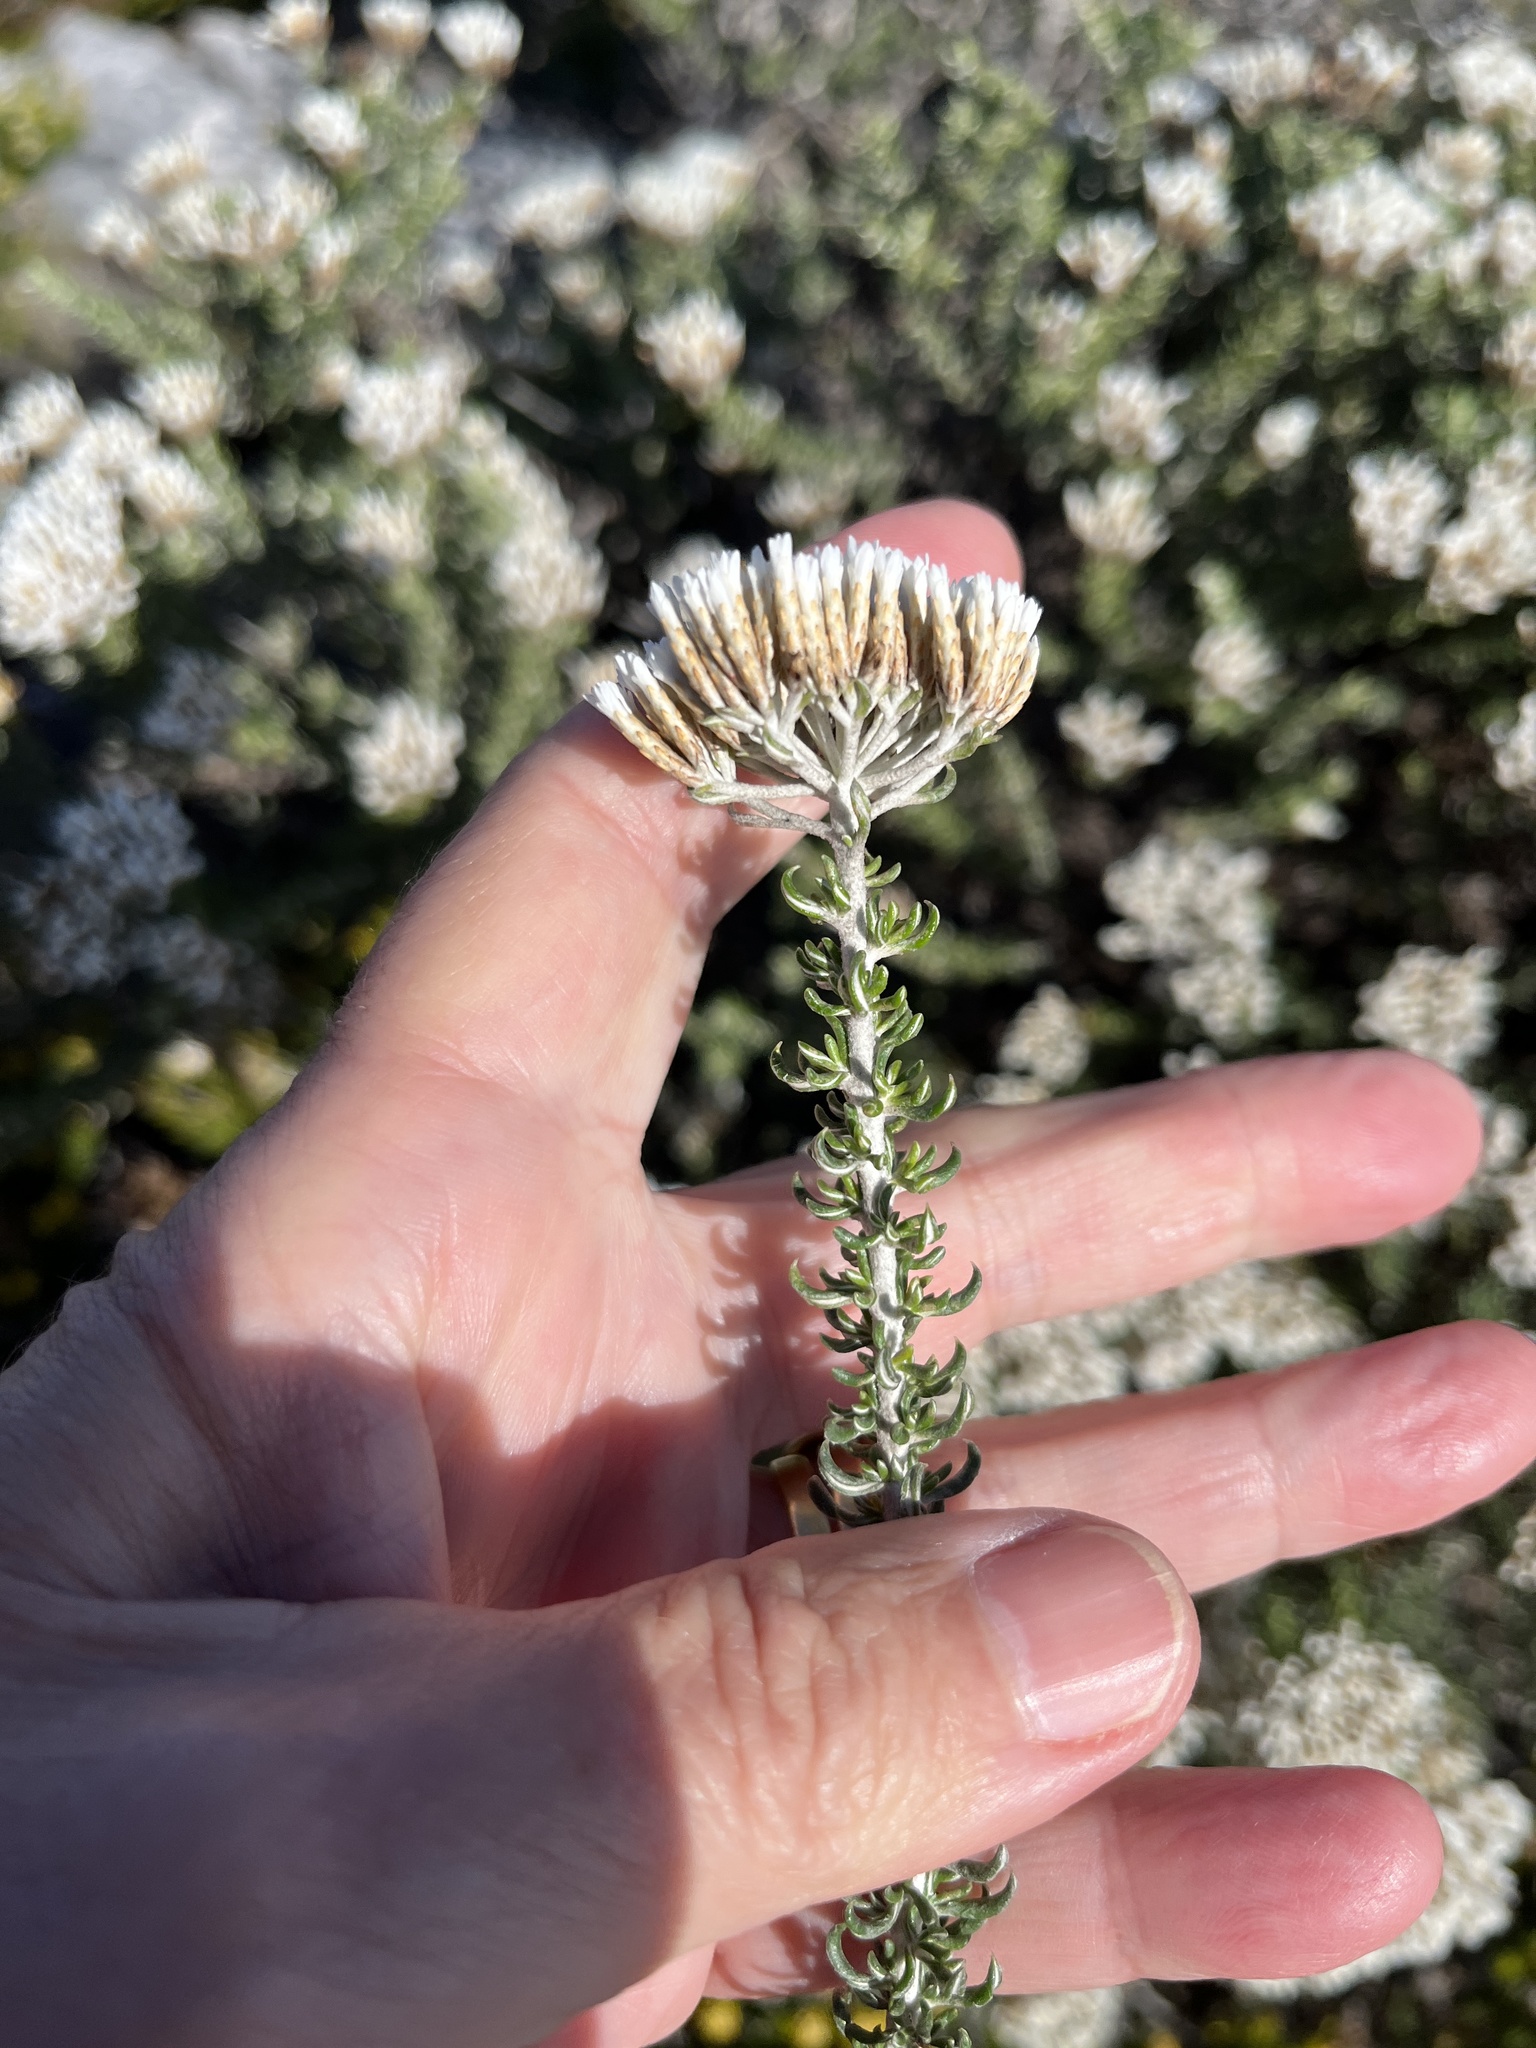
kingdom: Plantae
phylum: Tracheophyta
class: Magnoliopsida
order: Asterales
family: Asteraceae
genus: Metalasia
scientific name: Metalasia muricata
